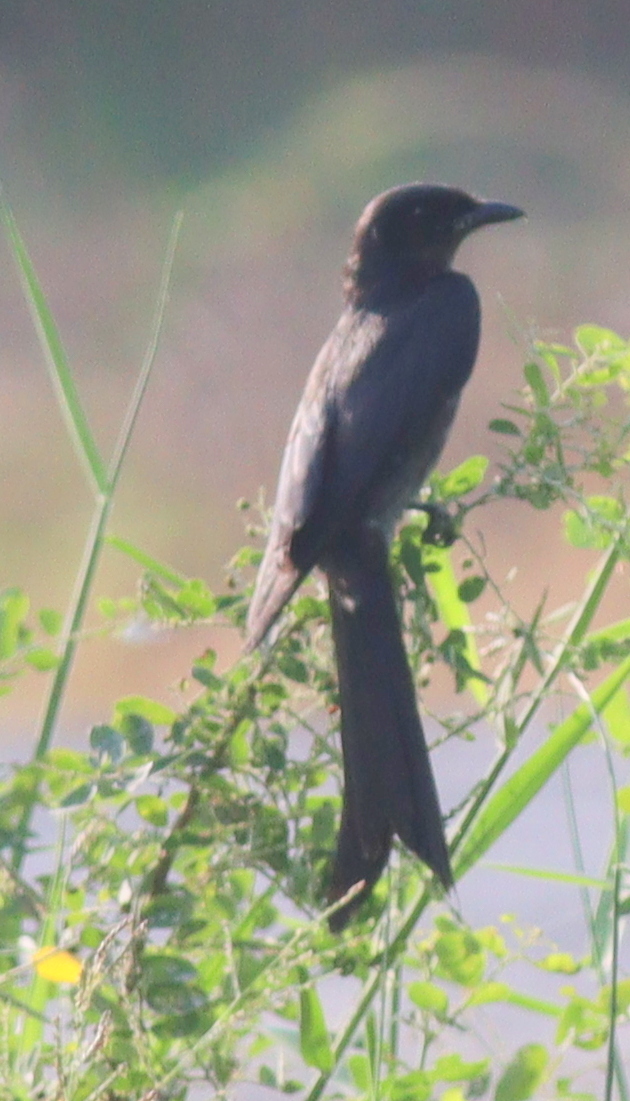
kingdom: Animalia
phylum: Chordata
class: Aves
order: Passeriformes
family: Dicruridae
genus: Dicrurus
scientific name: Dicrurus macrocercus
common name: Black drongo
